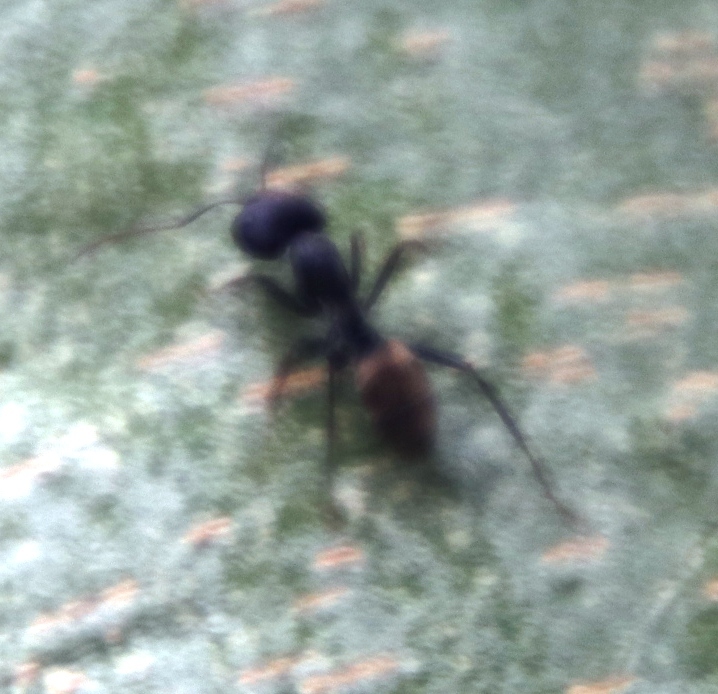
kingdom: Animalia
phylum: Arthropoda
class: Insecta
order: Hymenoptera
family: Formicidae
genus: Camponotus
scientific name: Camponotus cinctellus
